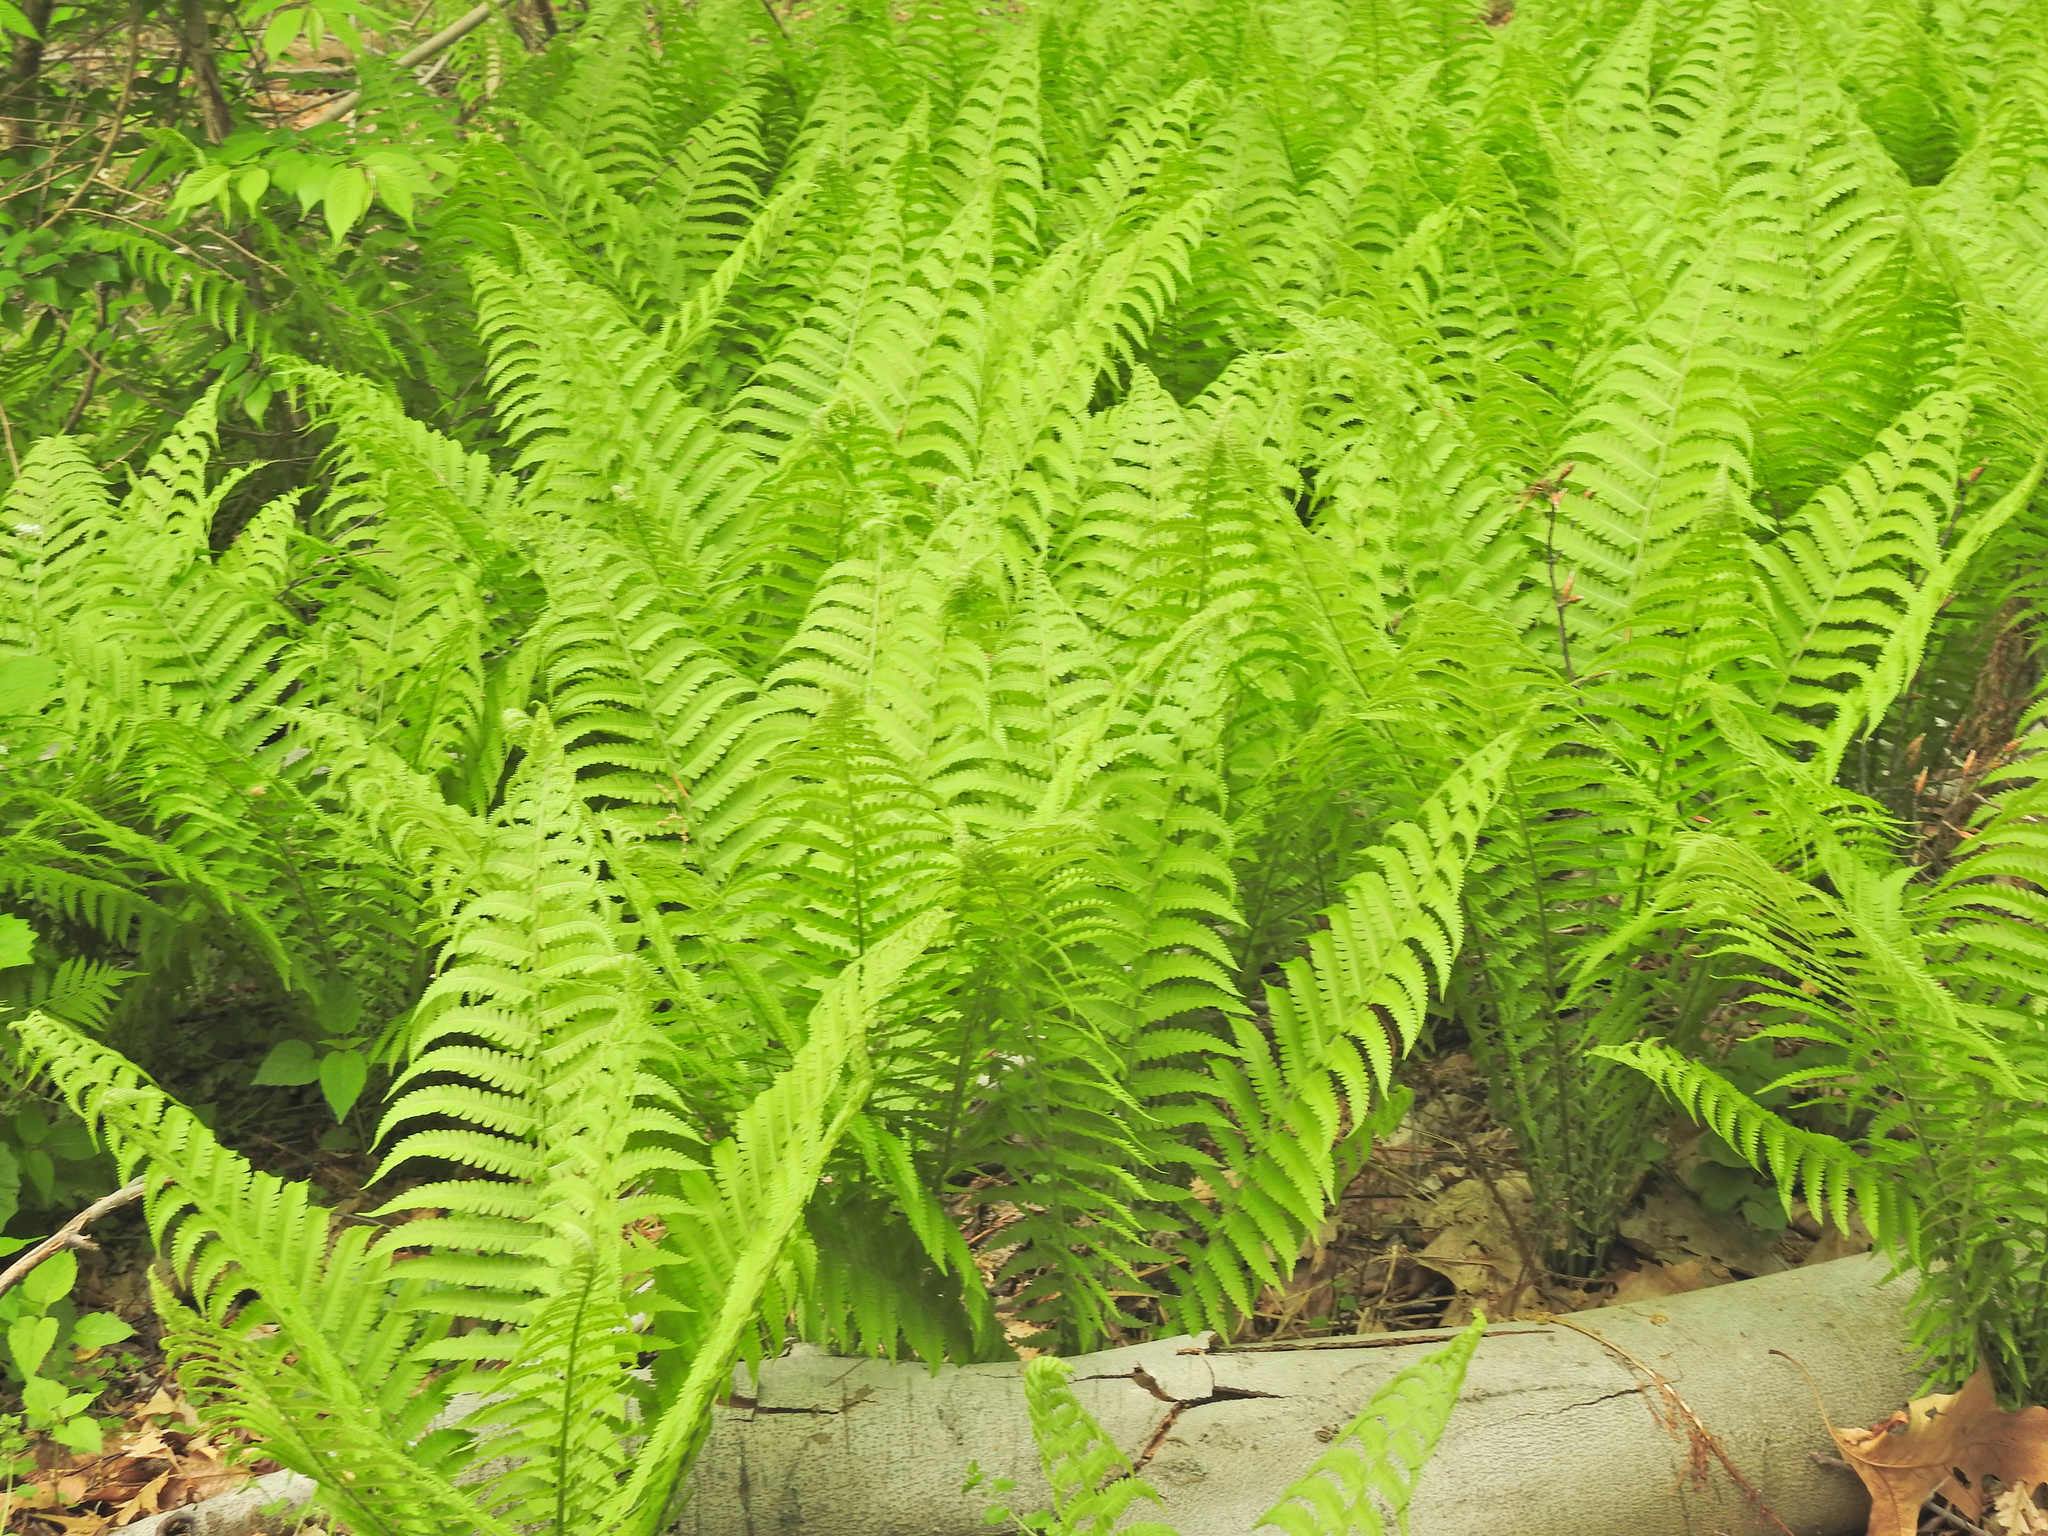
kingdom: Plantae
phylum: Tracheophyta
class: Polypodiopsida
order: Polypodiales
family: Onocleaceae
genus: Matteuccia
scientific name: Matteuccia struthiopteris
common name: Ostrich fern
